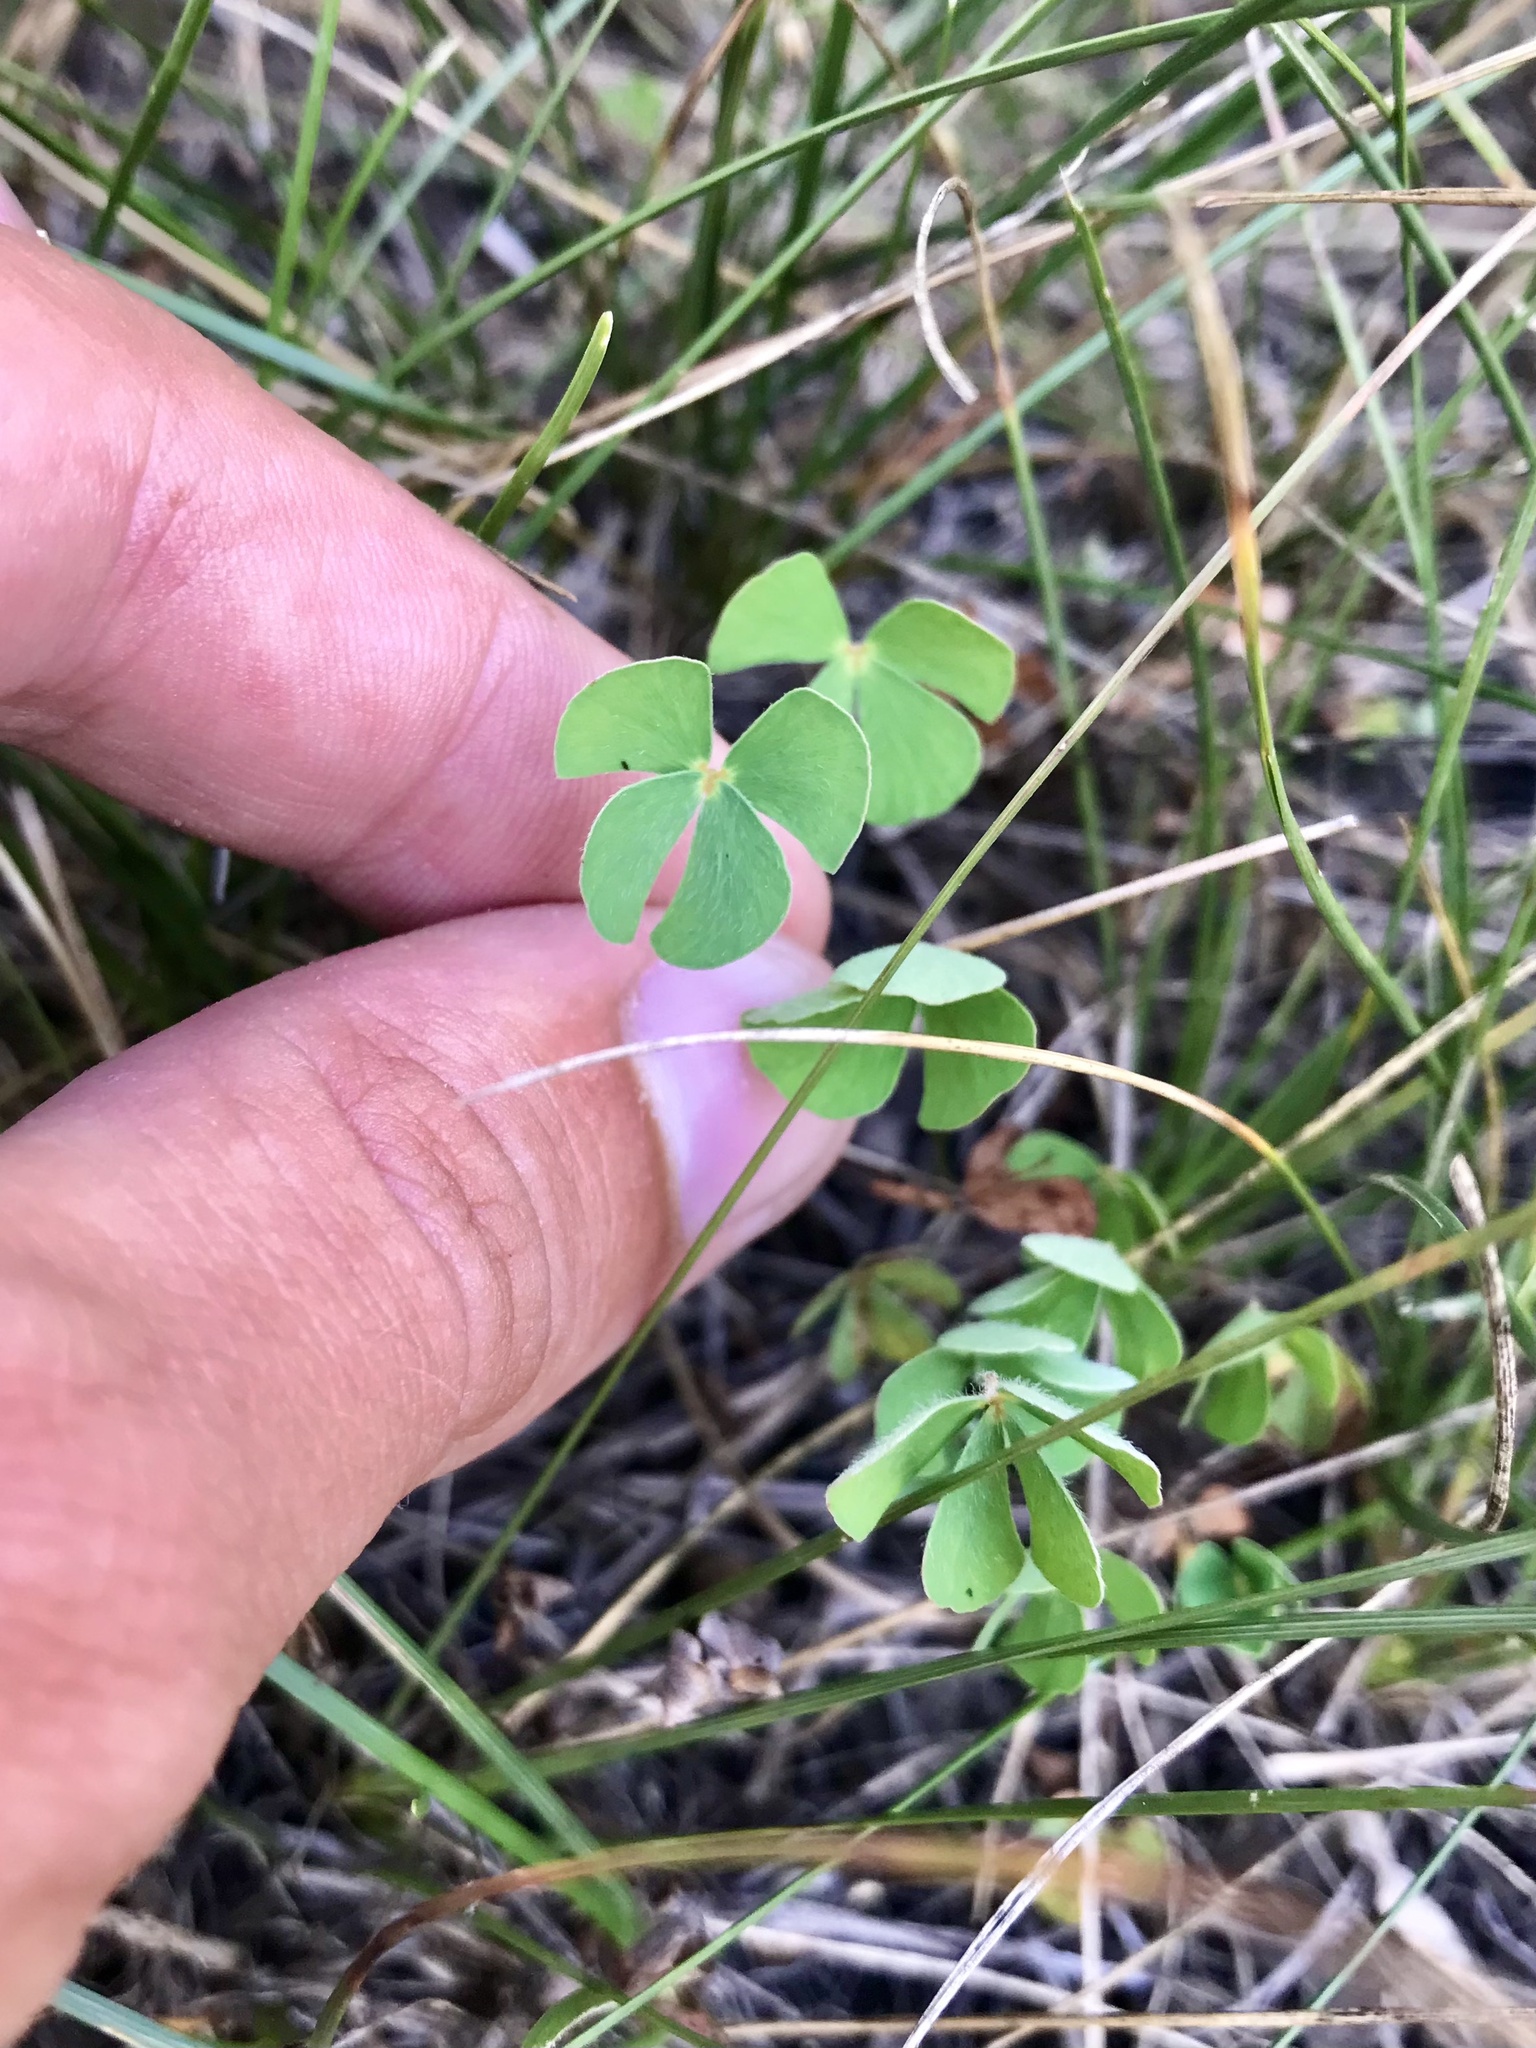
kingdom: Plantae
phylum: Tracheophyta
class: Polypodiopsida
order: Salviniales
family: Marsileaceae
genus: Marsilea
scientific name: Marsilea vestita
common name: Hooked-pepperwort
